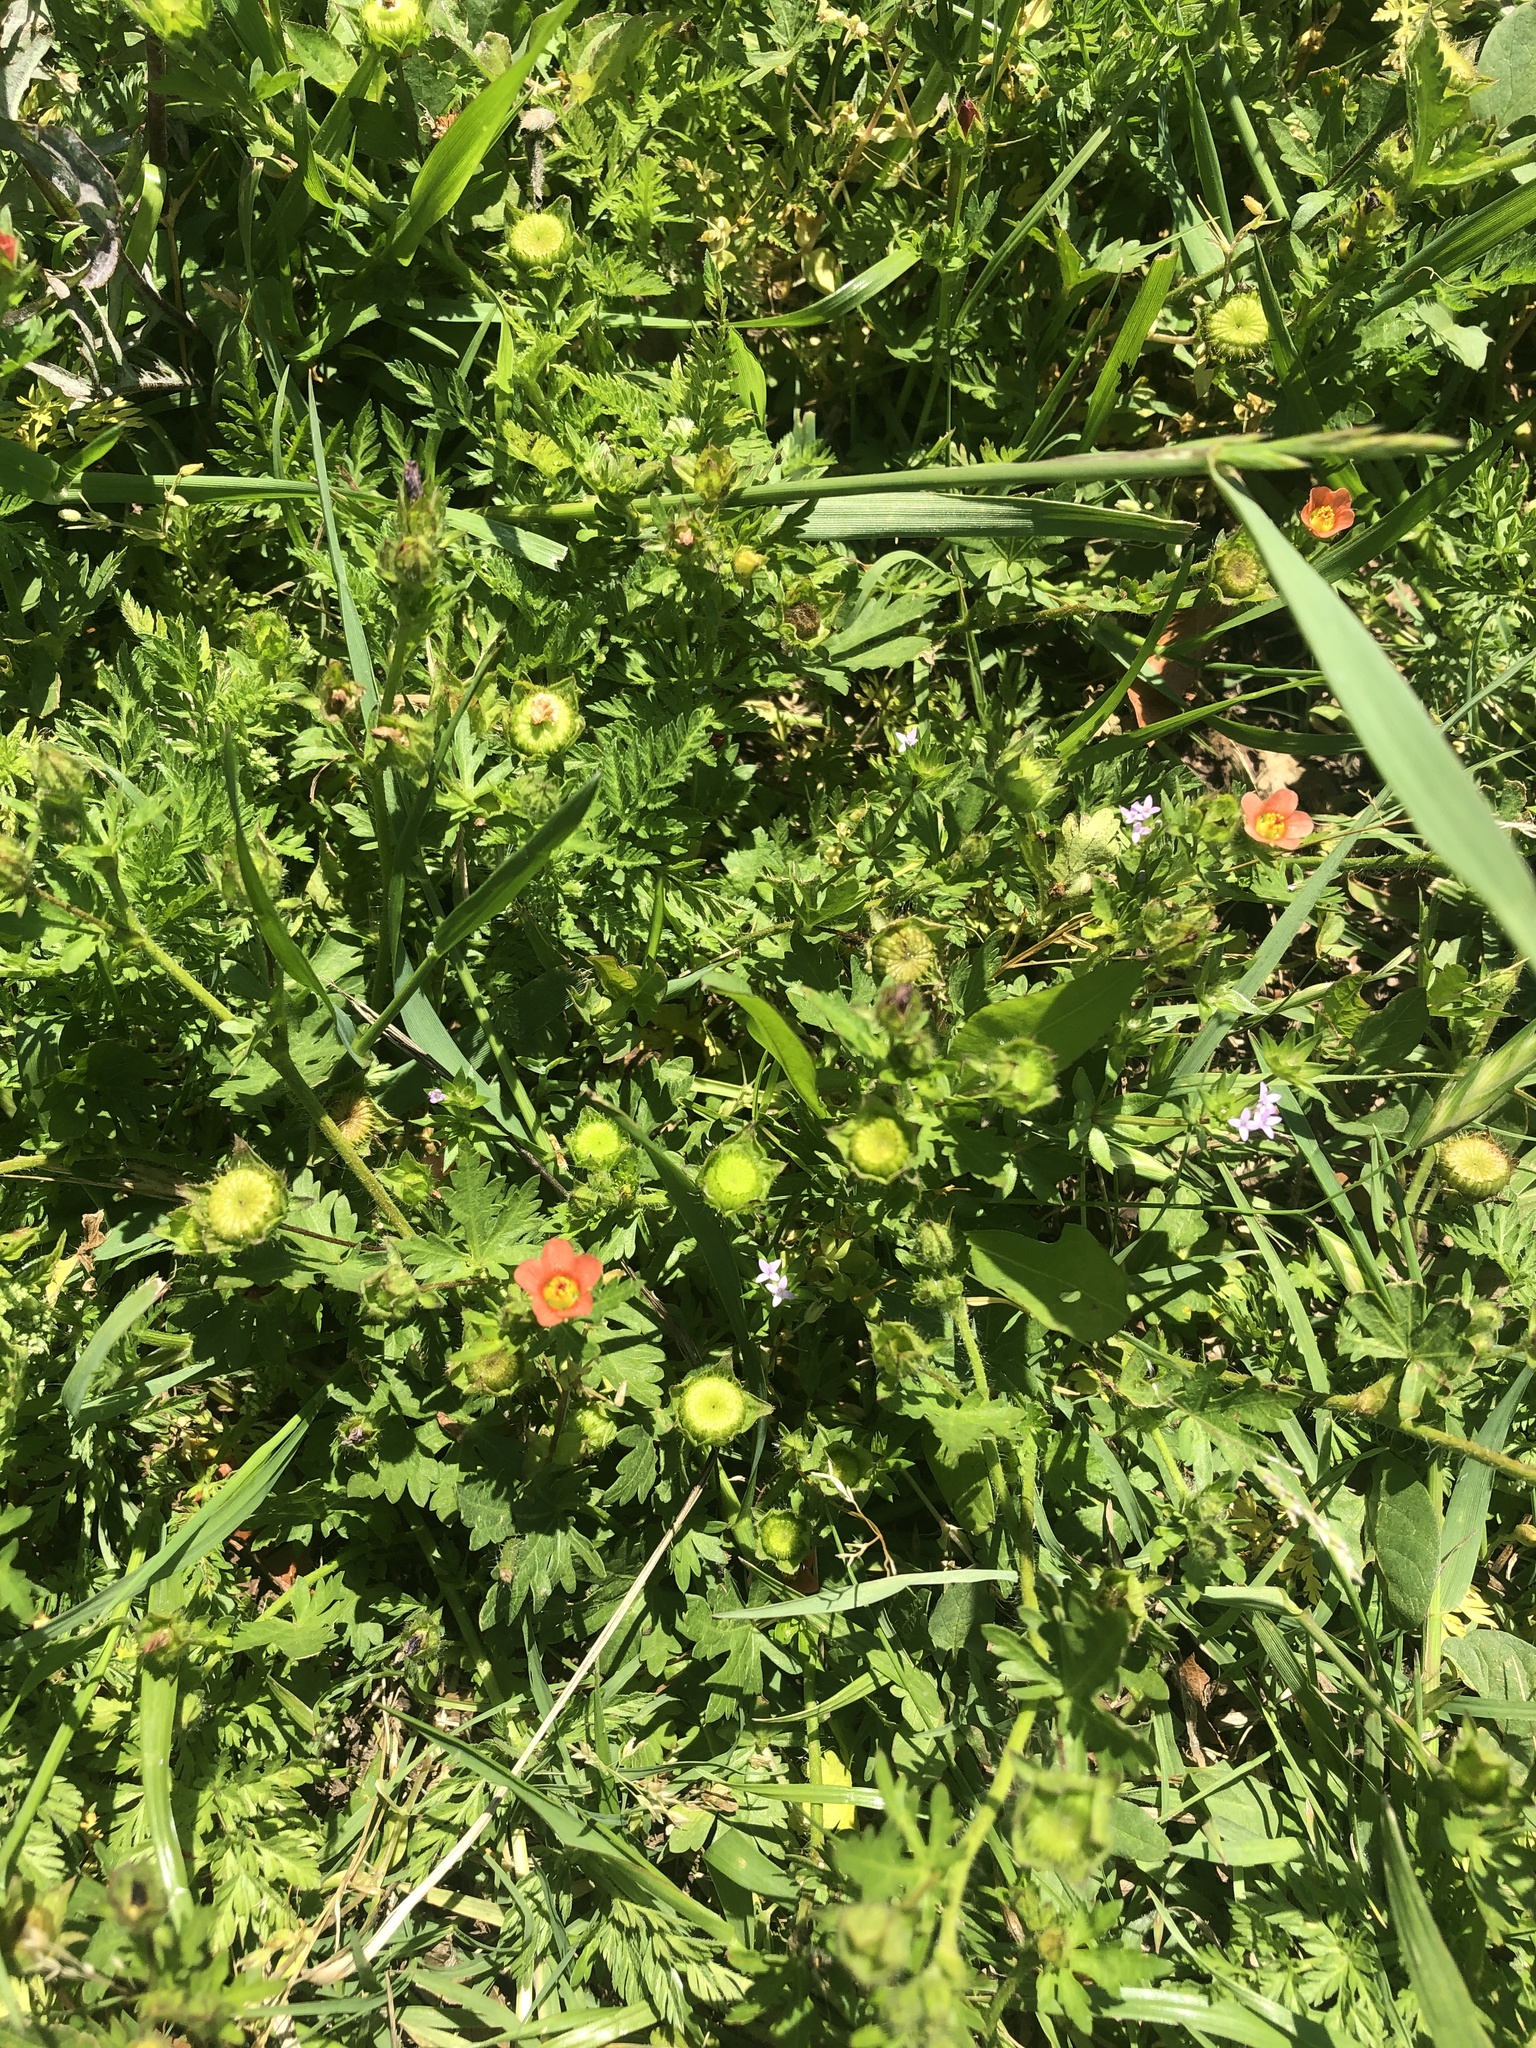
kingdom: Plantae
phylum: Tracheophyta
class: Magnoliopsida
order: Malvales
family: Malvaceae
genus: Modiola
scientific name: Modiola caroliniana
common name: Carolina bristlemallow
